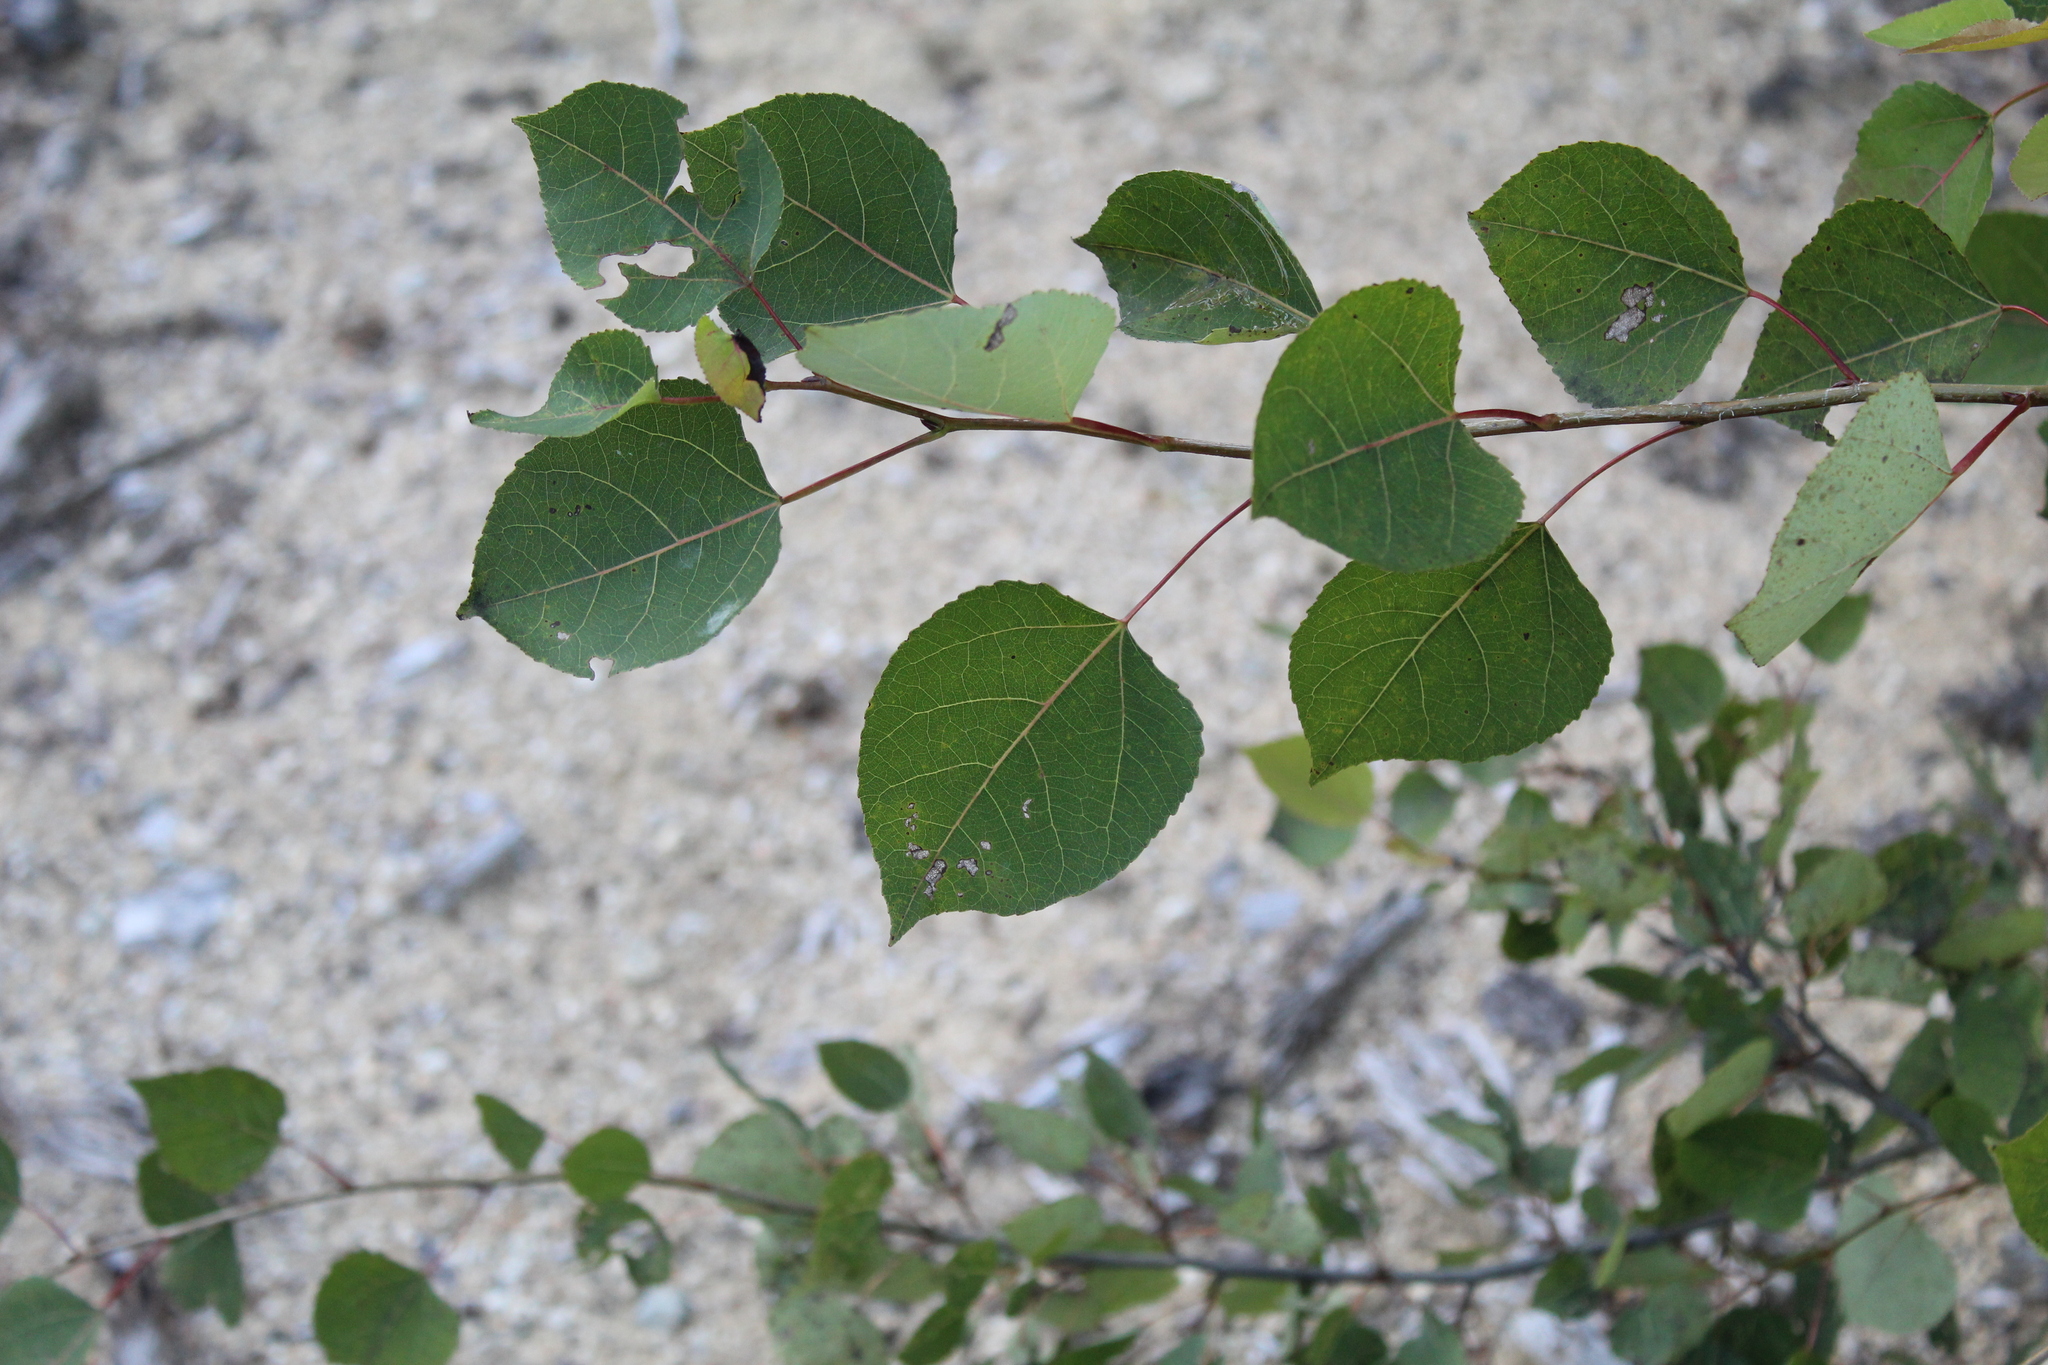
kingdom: Plantae
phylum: Tracheophyta
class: Magnoliopsida
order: Malpighiales
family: Salicaceae
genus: Populus
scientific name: Populus tremuloides
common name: Quaking aspen
